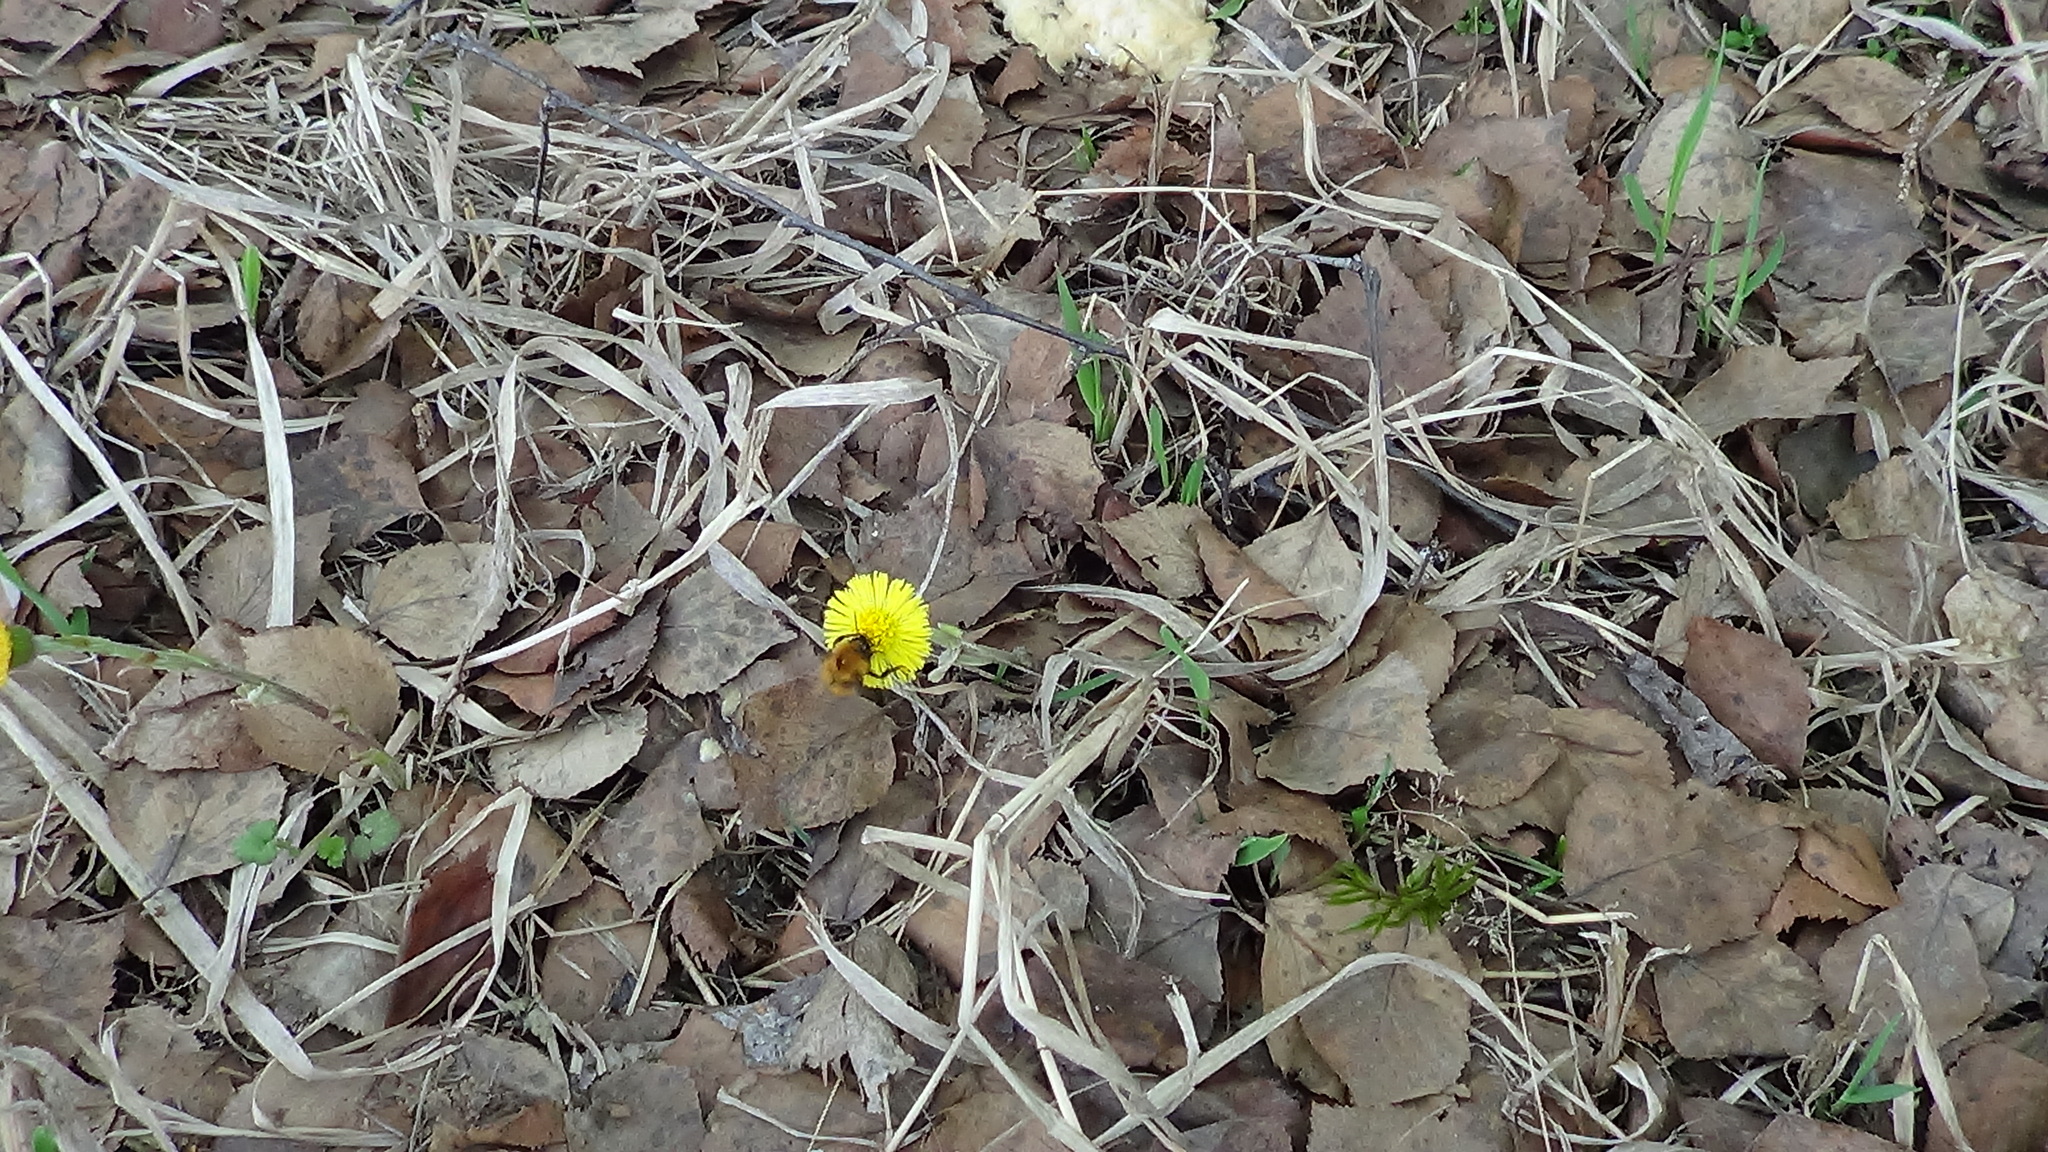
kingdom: Animalia
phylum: Arthropoda
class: Insecta
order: Hymenoptera
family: Apidae
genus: Bombus
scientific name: Bombus hypnorum
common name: New garden bumblebee
